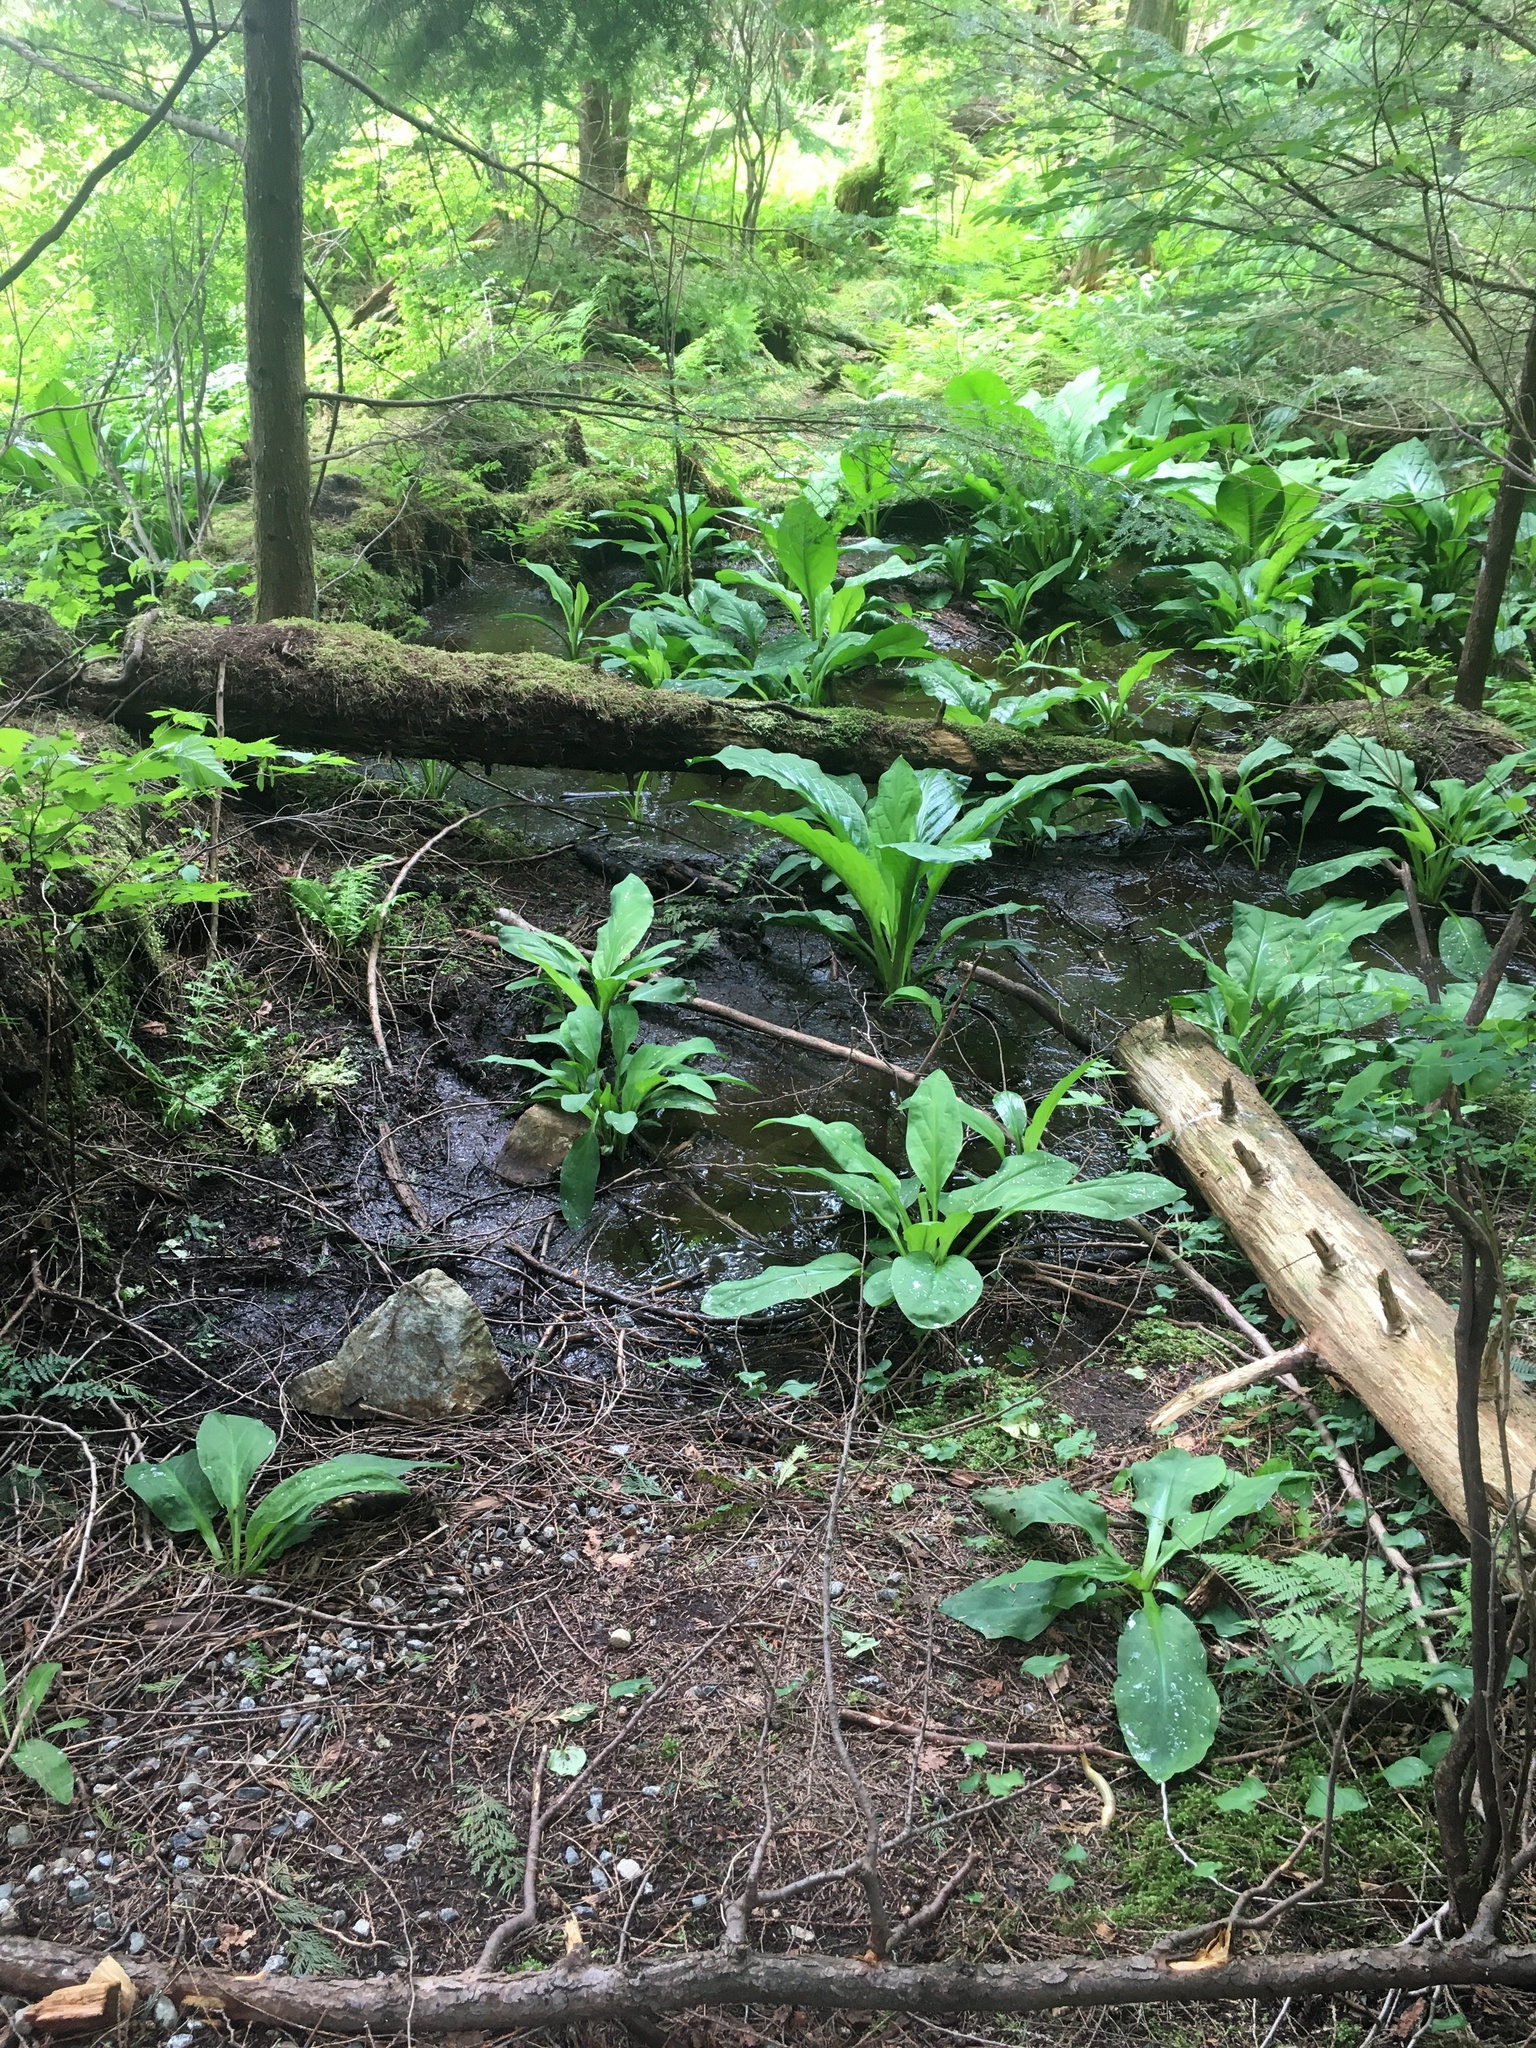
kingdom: Plantae
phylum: Tracheophyta
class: Liliopsida
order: Alismatales
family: Araceae
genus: Lysichiton
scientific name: Lysichiton americanus
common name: American skunk cabbage
